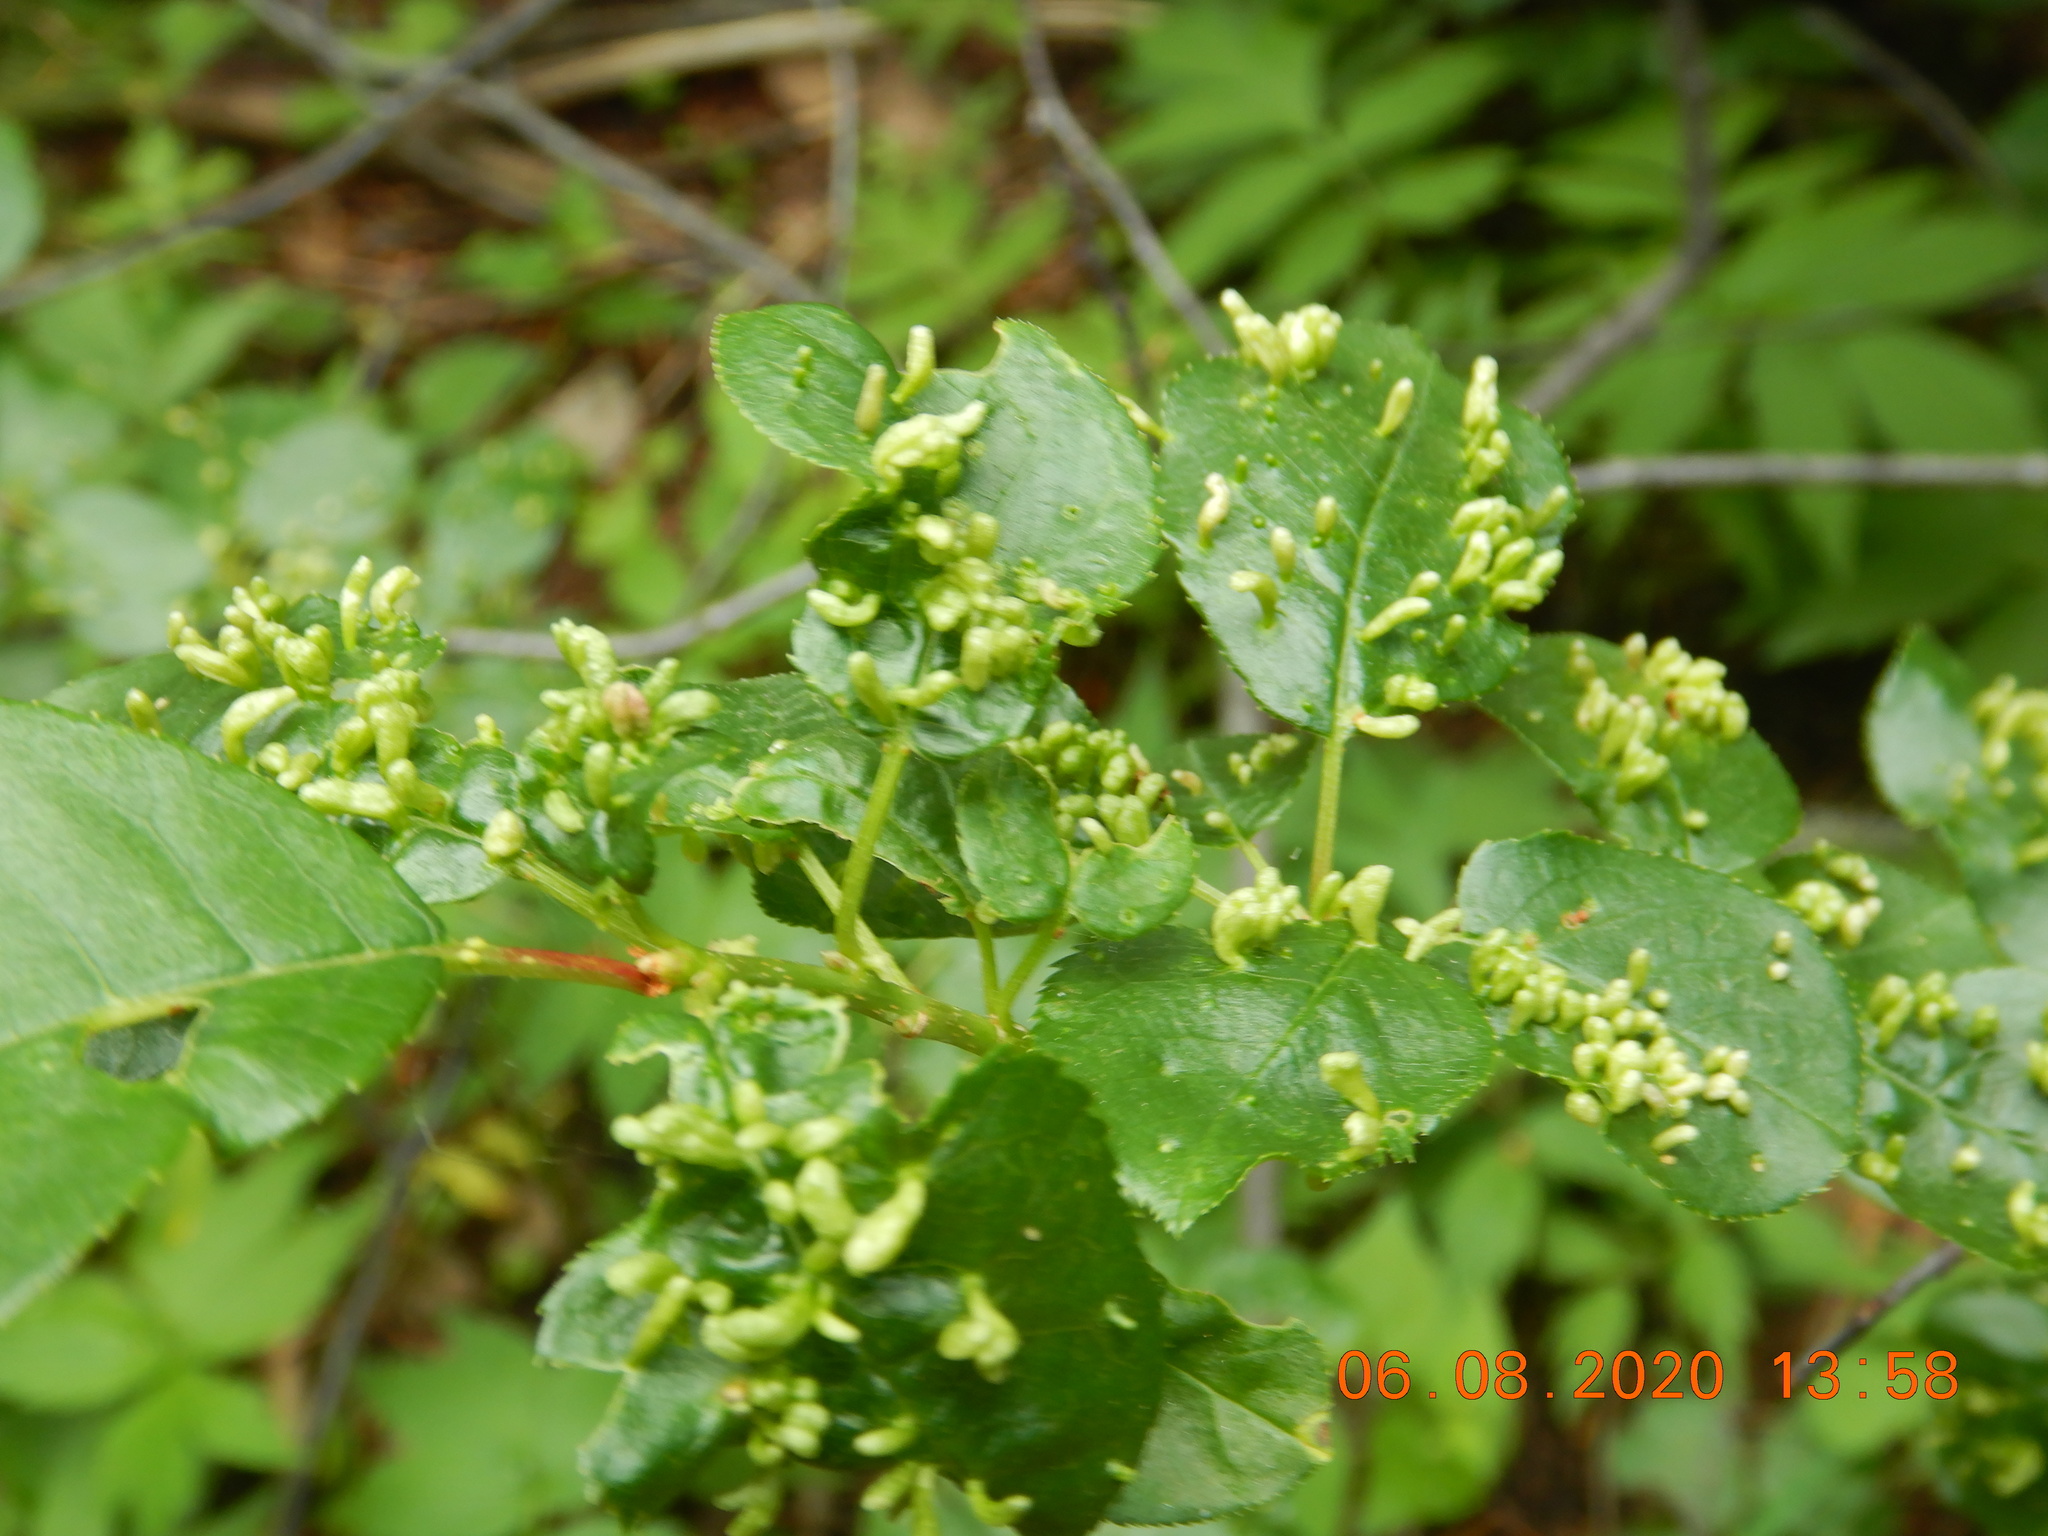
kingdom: Animalia
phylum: Arthropoda
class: Arachnida
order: Trombidiformes
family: Eriophyidae
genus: Eriophyes
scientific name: Eriophyes emarginatae
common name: Plum leaf gall mite
